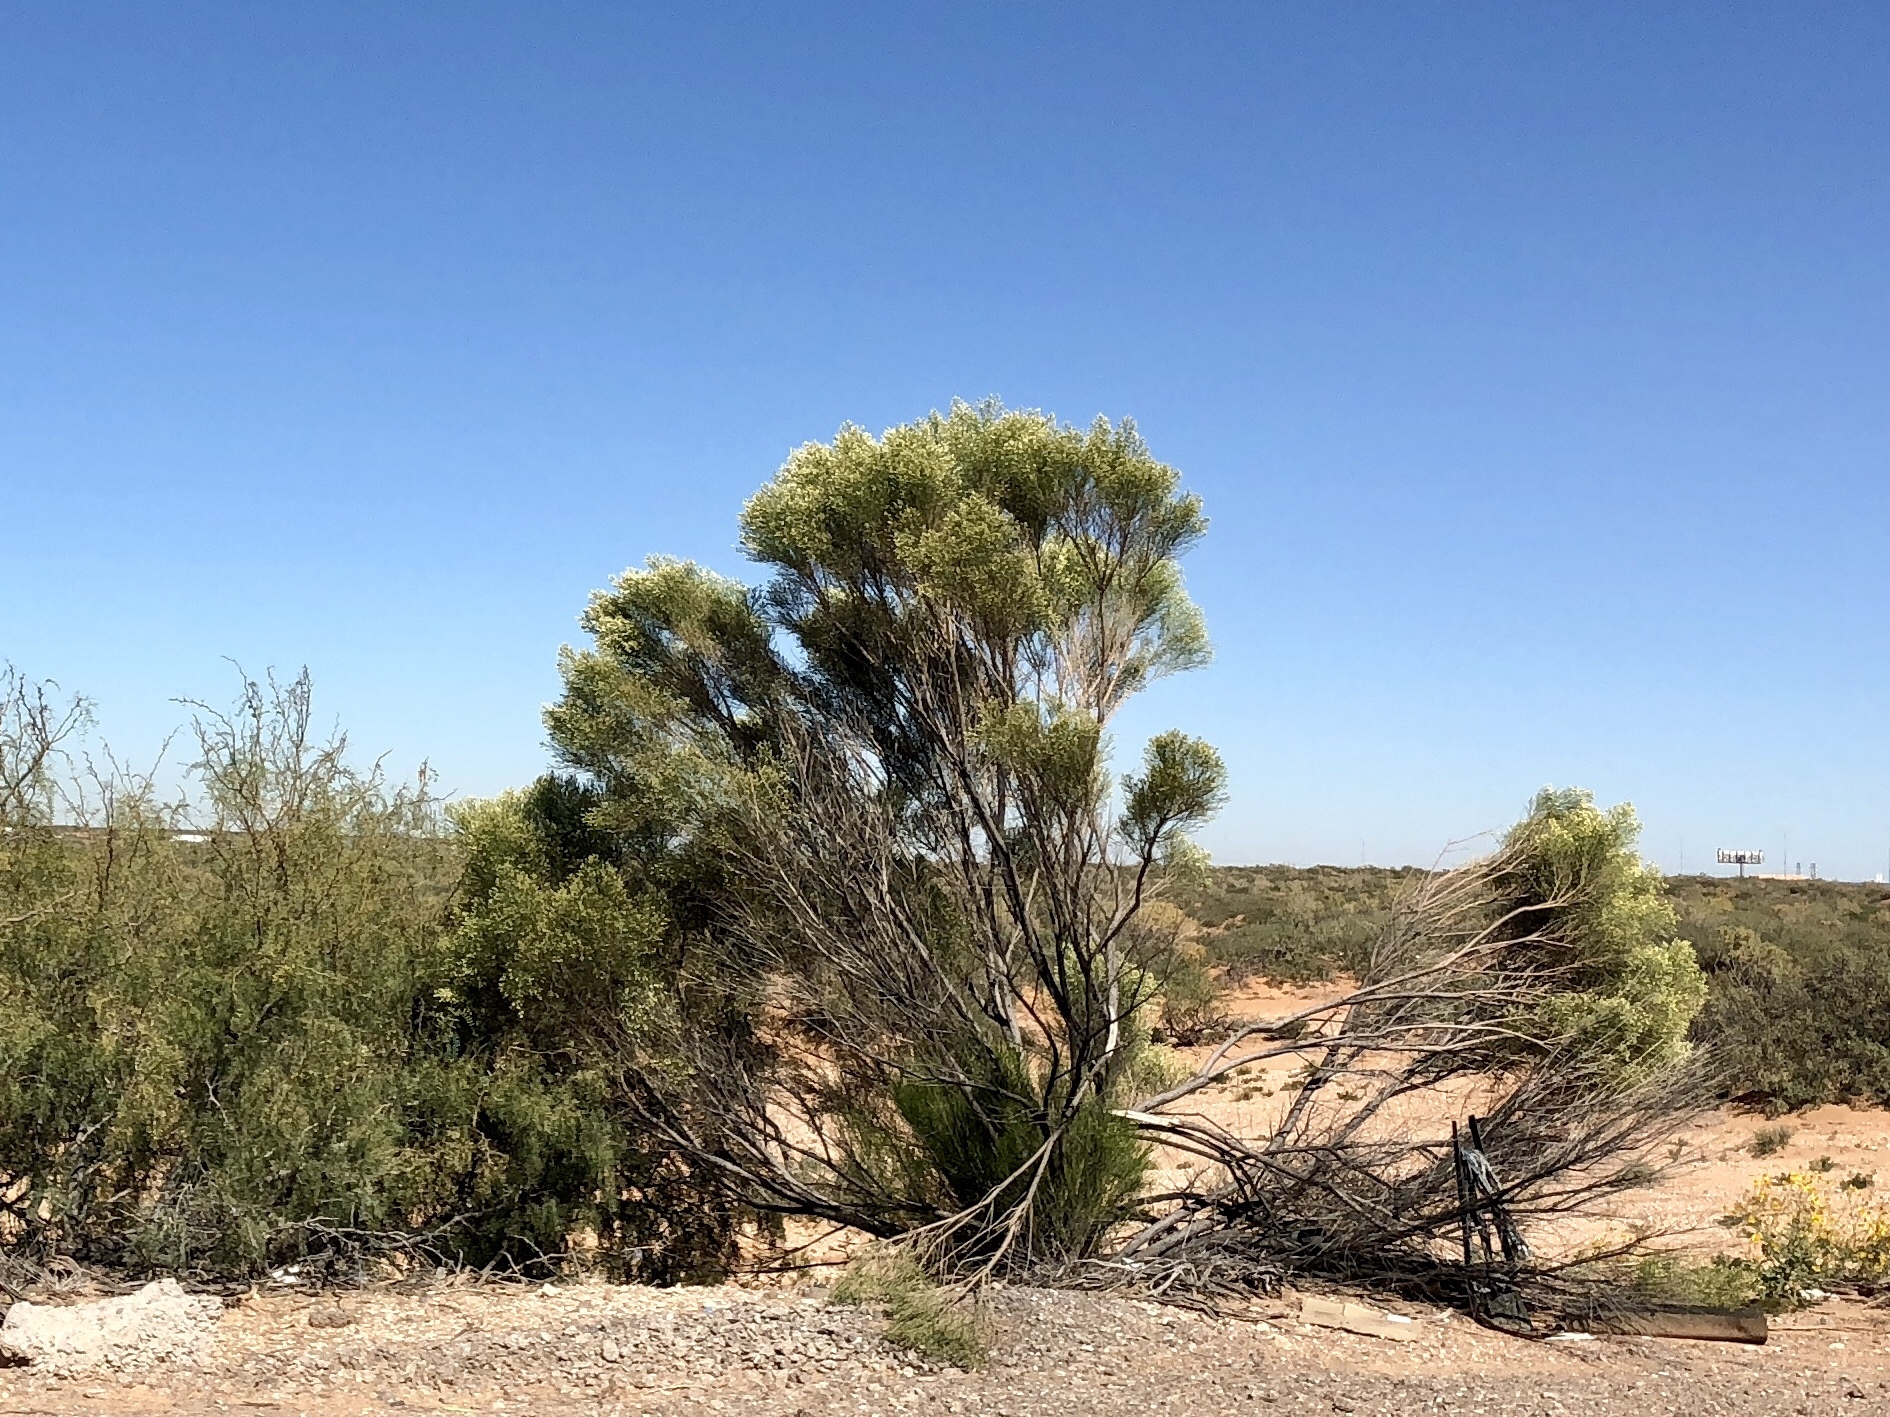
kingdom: Plantae
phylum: Tracheophyta
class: Magnoliopsida
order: Asterales
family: Asteraceae
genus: Baccharis
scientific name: Baccharis sarothroides
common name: Desert-broom
